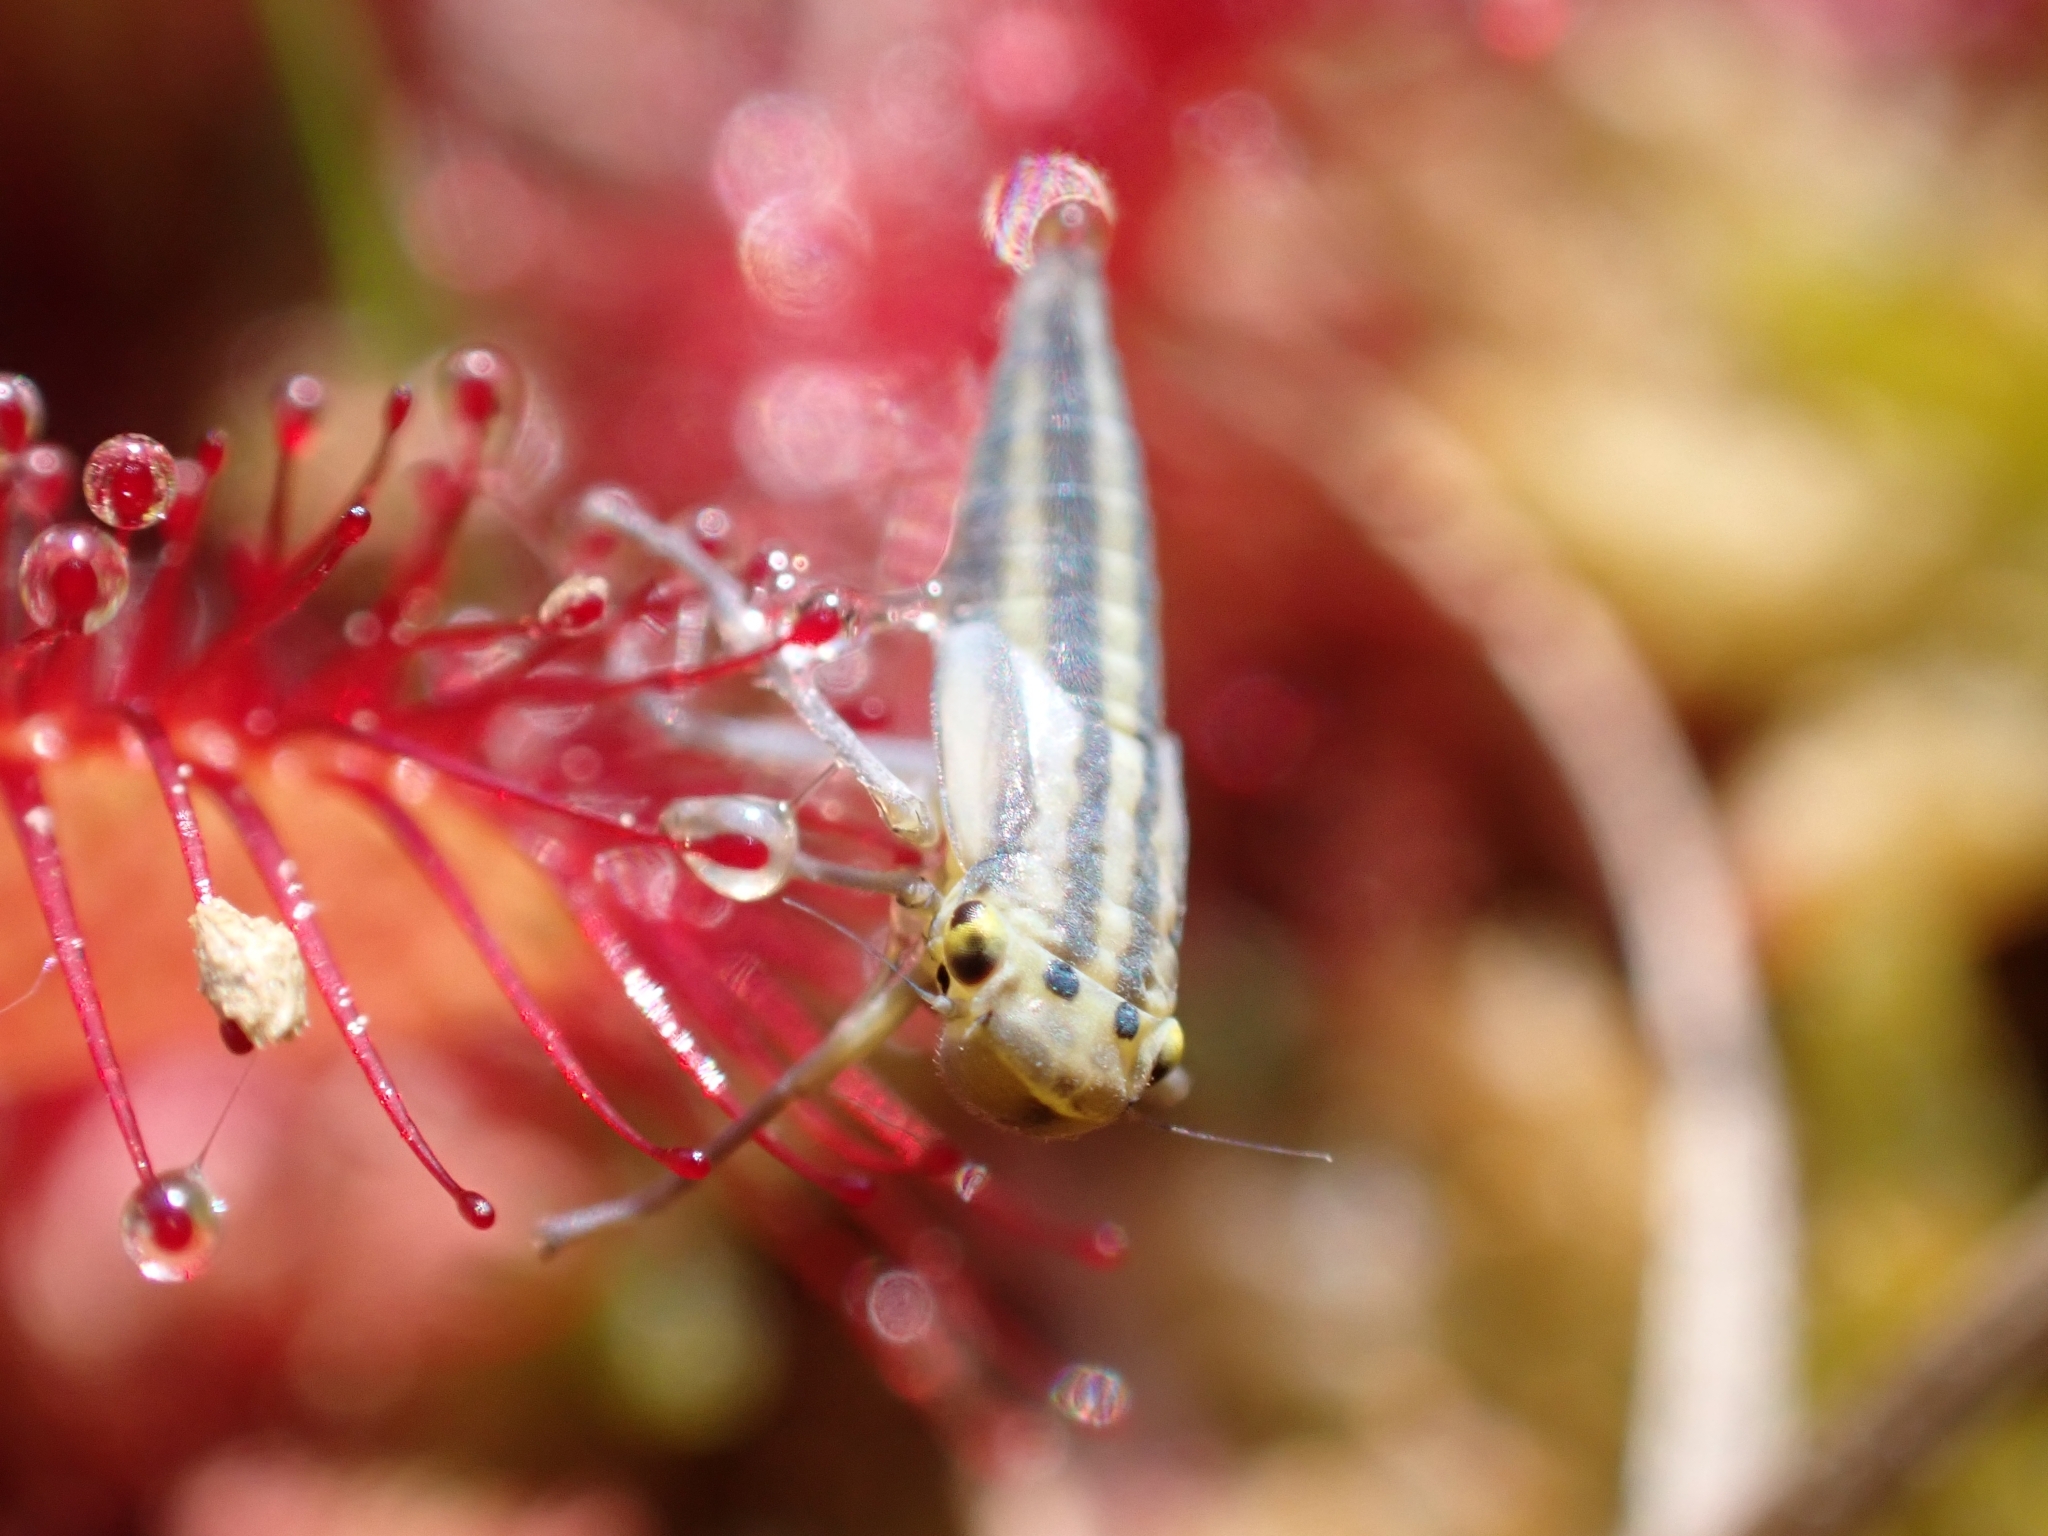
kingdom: Animalia
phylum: Arthropoda
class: Insecta
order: Hemiptera
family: Cicadellidae
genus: Cicadella
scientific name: Cicadella viridis
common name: Leafhopper
